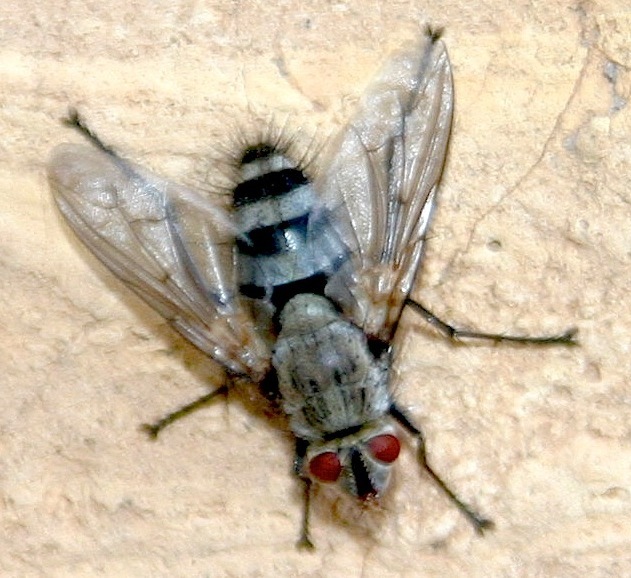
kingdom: Animalia
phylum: Arthropoda
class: Insecta
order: Diptera
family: Tachinidae
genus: Microphthalma
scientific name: Microphthalma disjuncta
